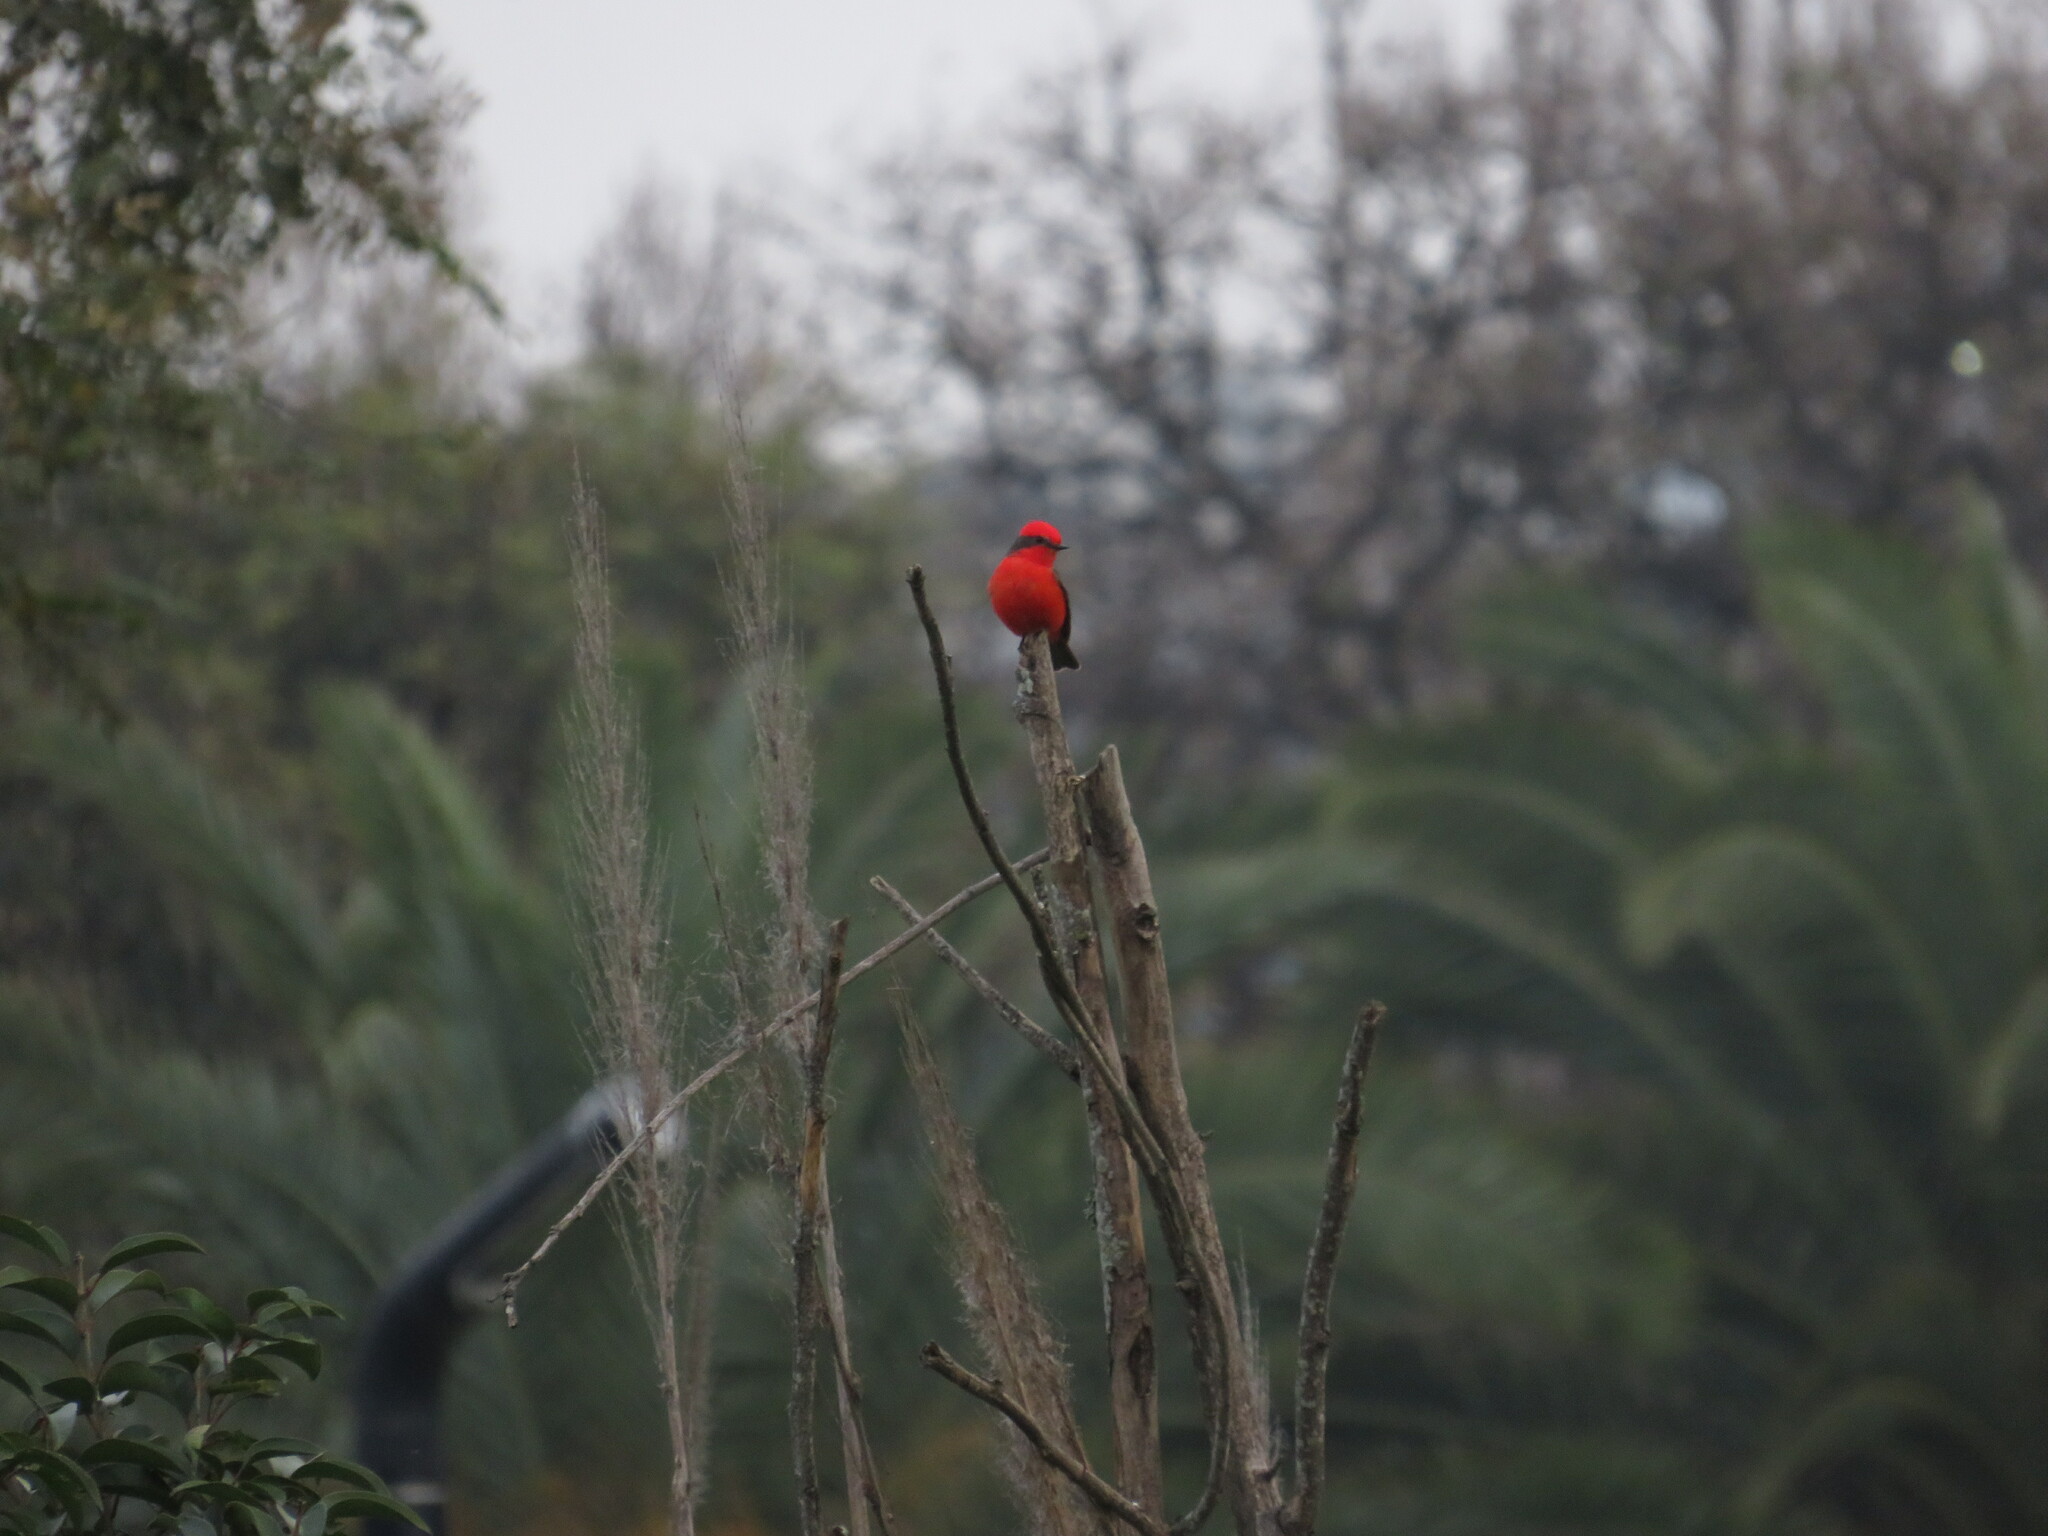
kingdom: Animalia
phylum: Chordata
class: Aves
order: Passeriformes
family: Tyrannidae
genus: Pyrocephalus
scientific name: Pyrocephalus rubinus
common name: Vermilion flycatcher
